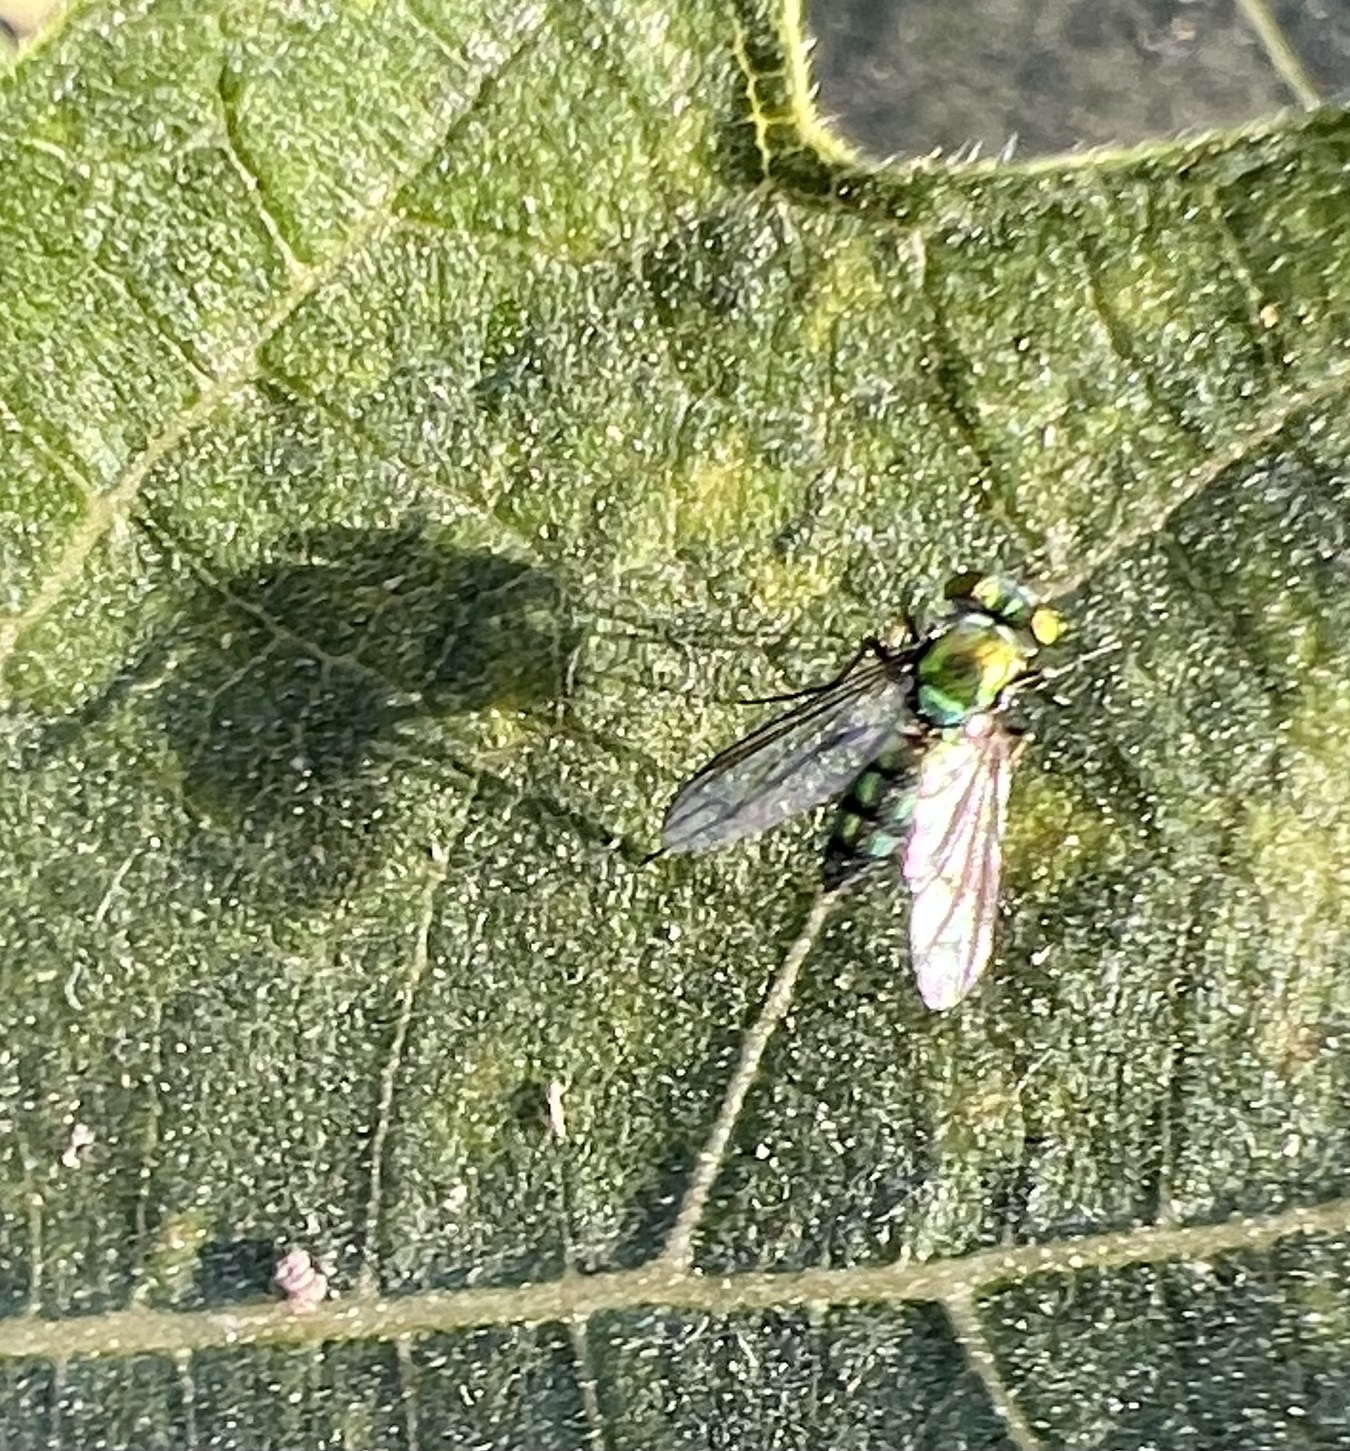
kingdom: Animalia
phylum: Arthropoda
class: Insecta
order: Diptera
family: Dolichopodidae
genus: Condylostylus
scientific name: Condylostylus longicornis
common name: Long-legged fly
